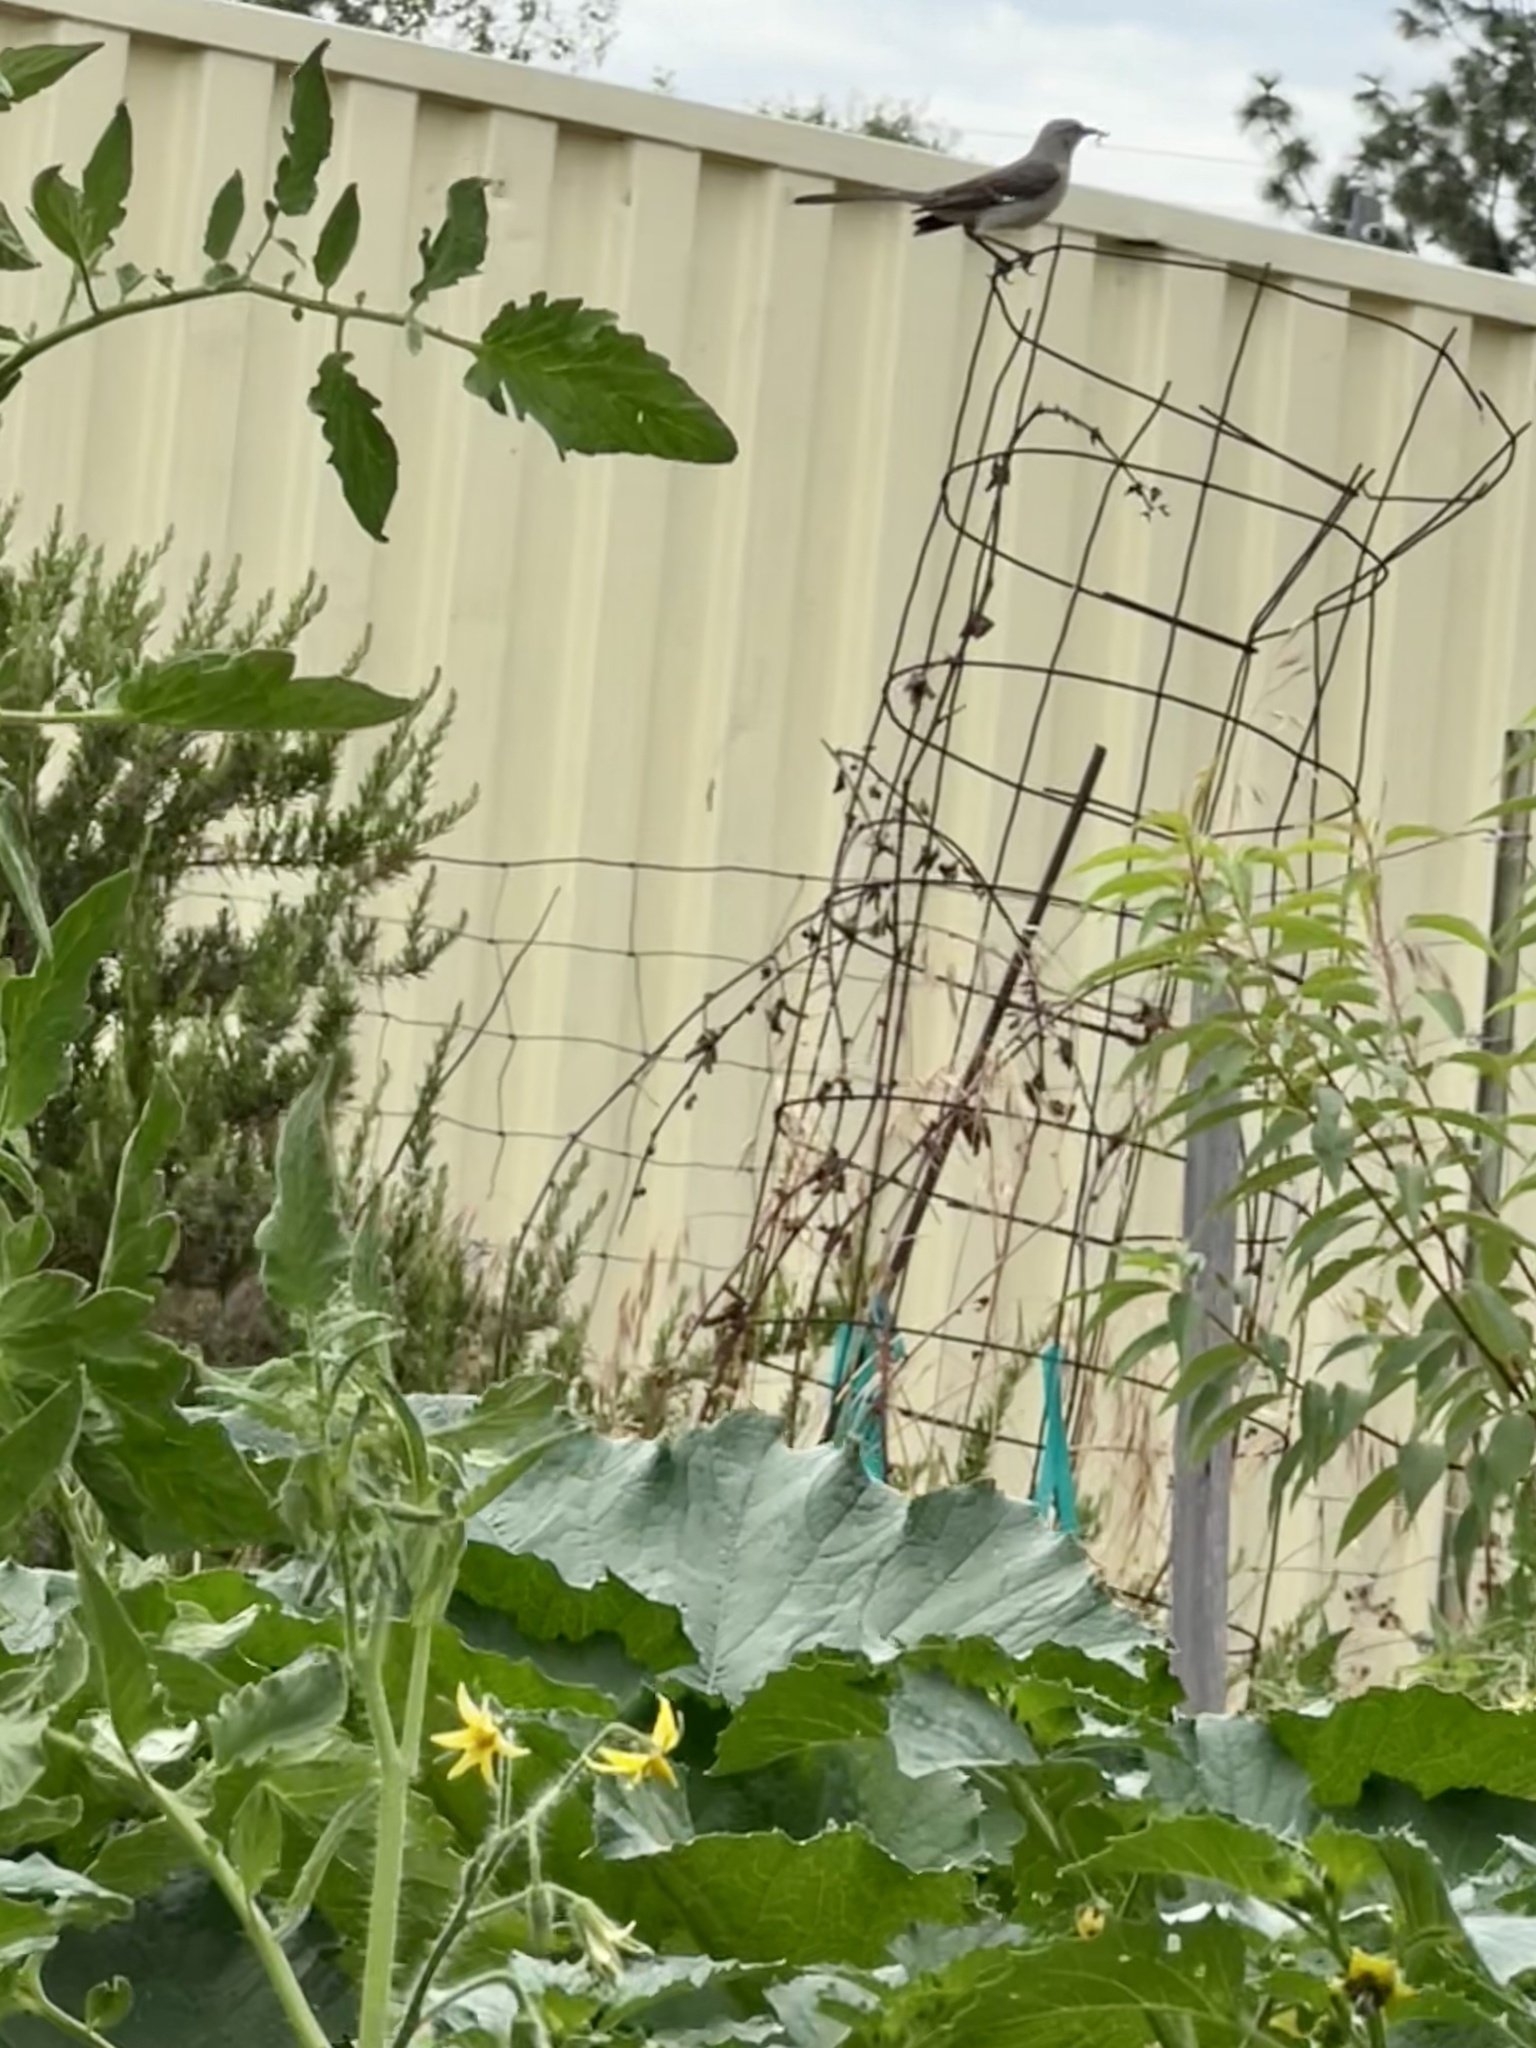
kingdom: Animalia
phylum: Chordata
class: Aves
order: Passeriformes
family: Mimidae
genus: Mimus
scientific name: Mimus polyglottos
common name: Northern mockingbird
